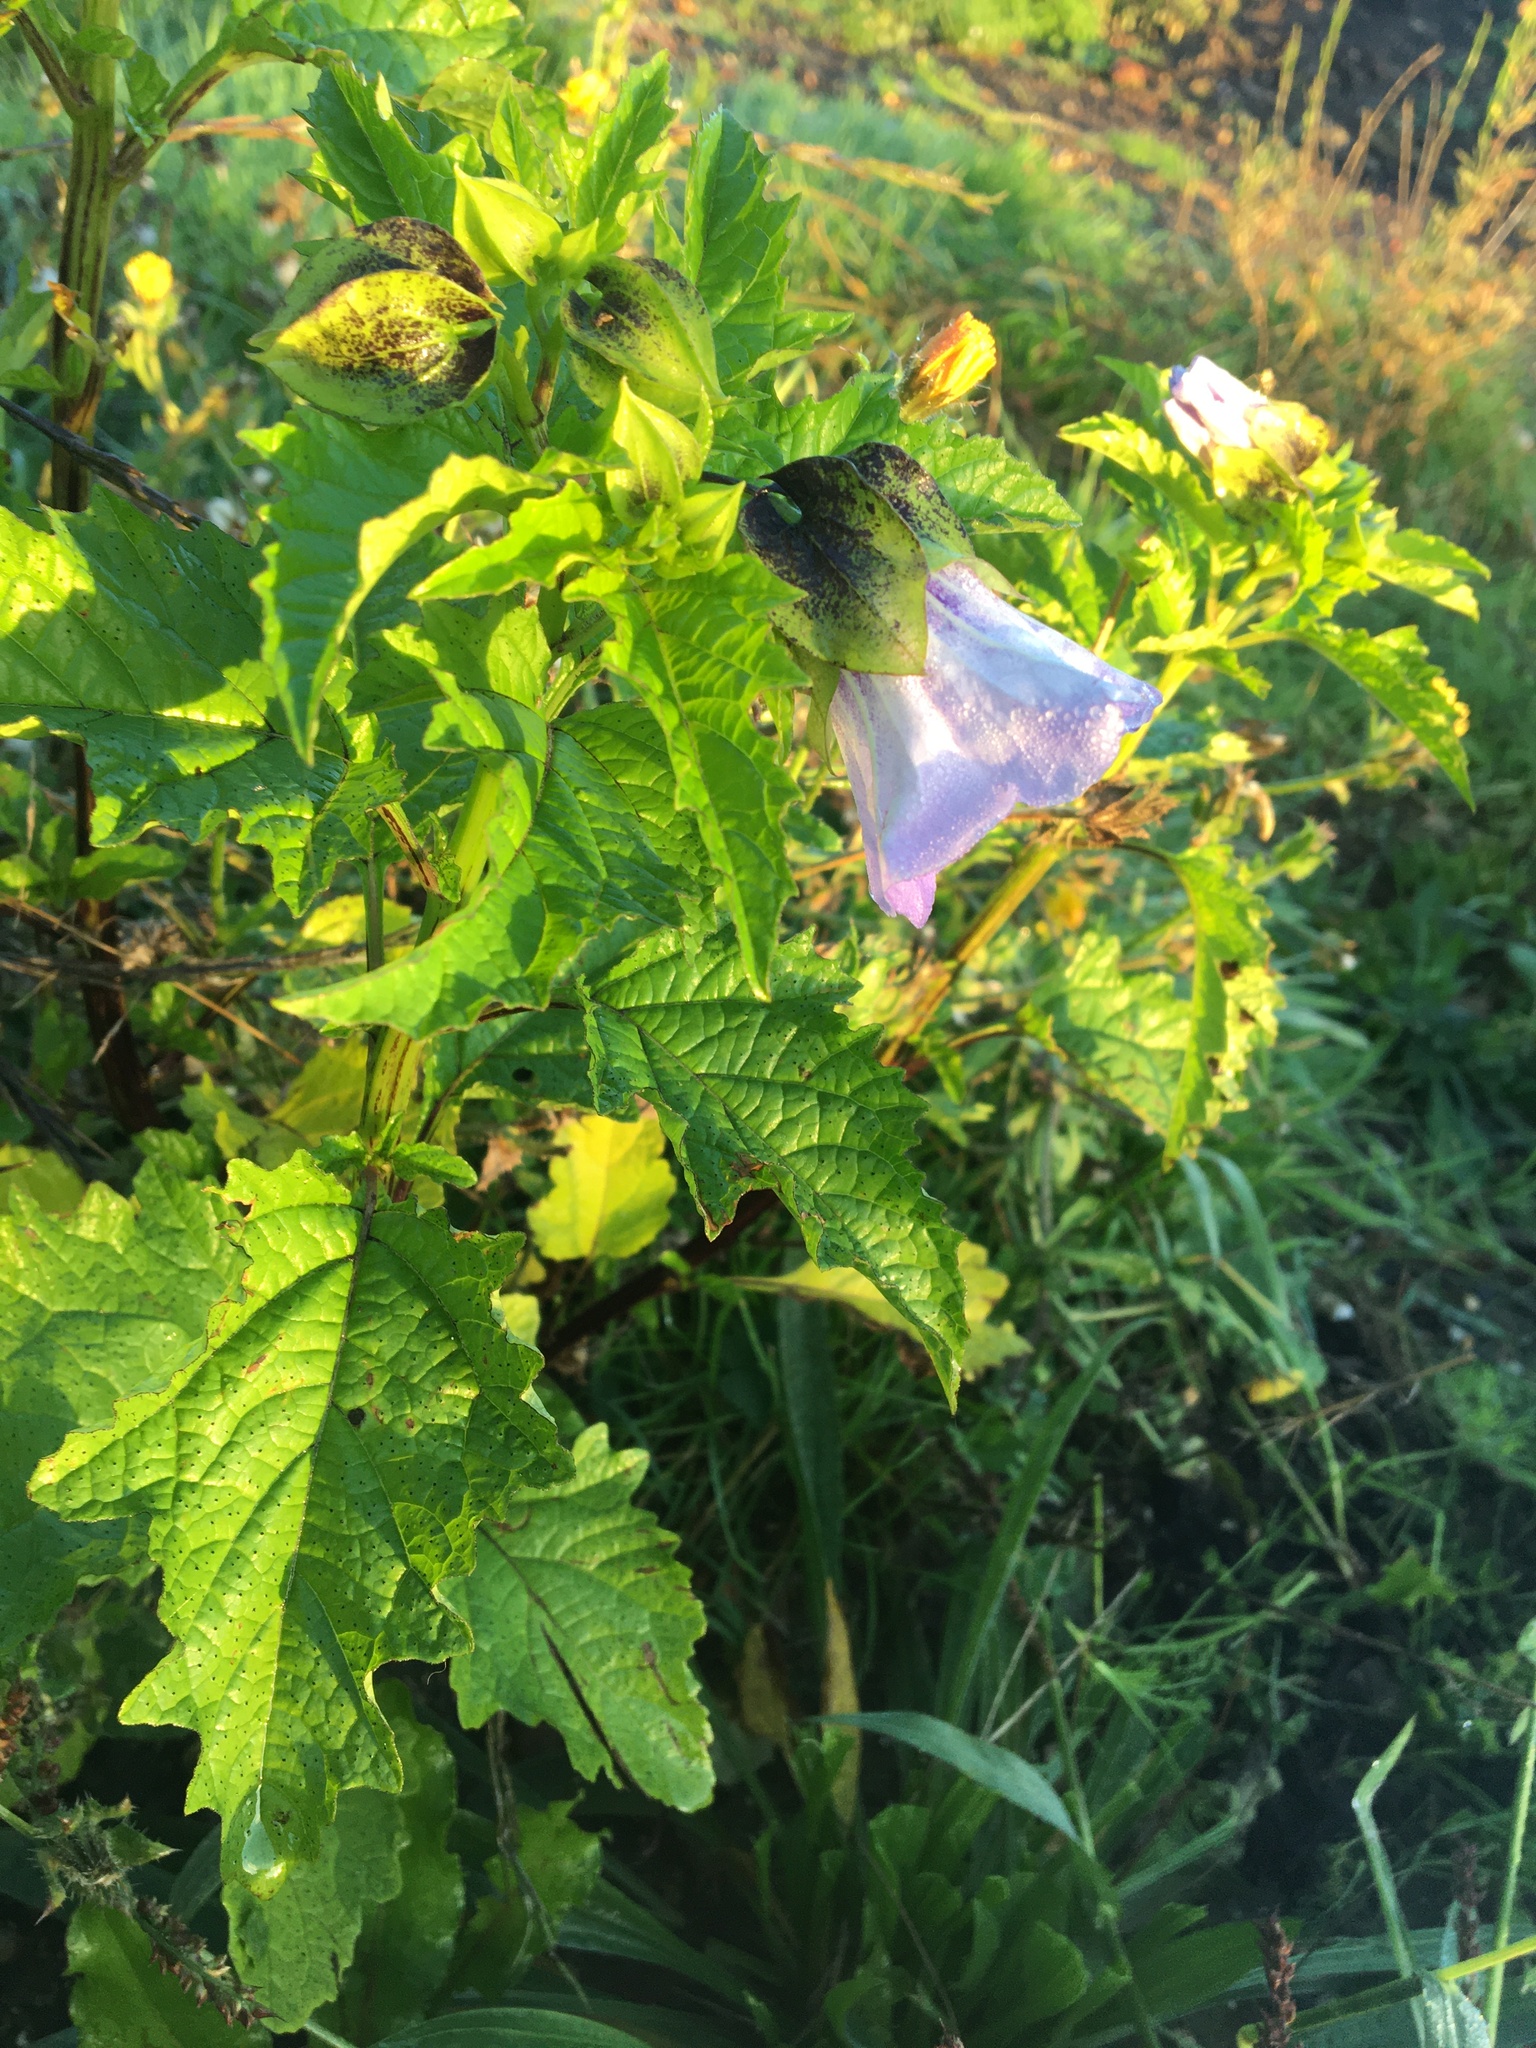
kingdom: Plantae
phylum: Tracheophyta
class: Magnoliopsida
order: Solanales
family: Solanaceae
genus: Nicandra
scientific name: Nicandra physalodes
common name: Apple-of-peru
